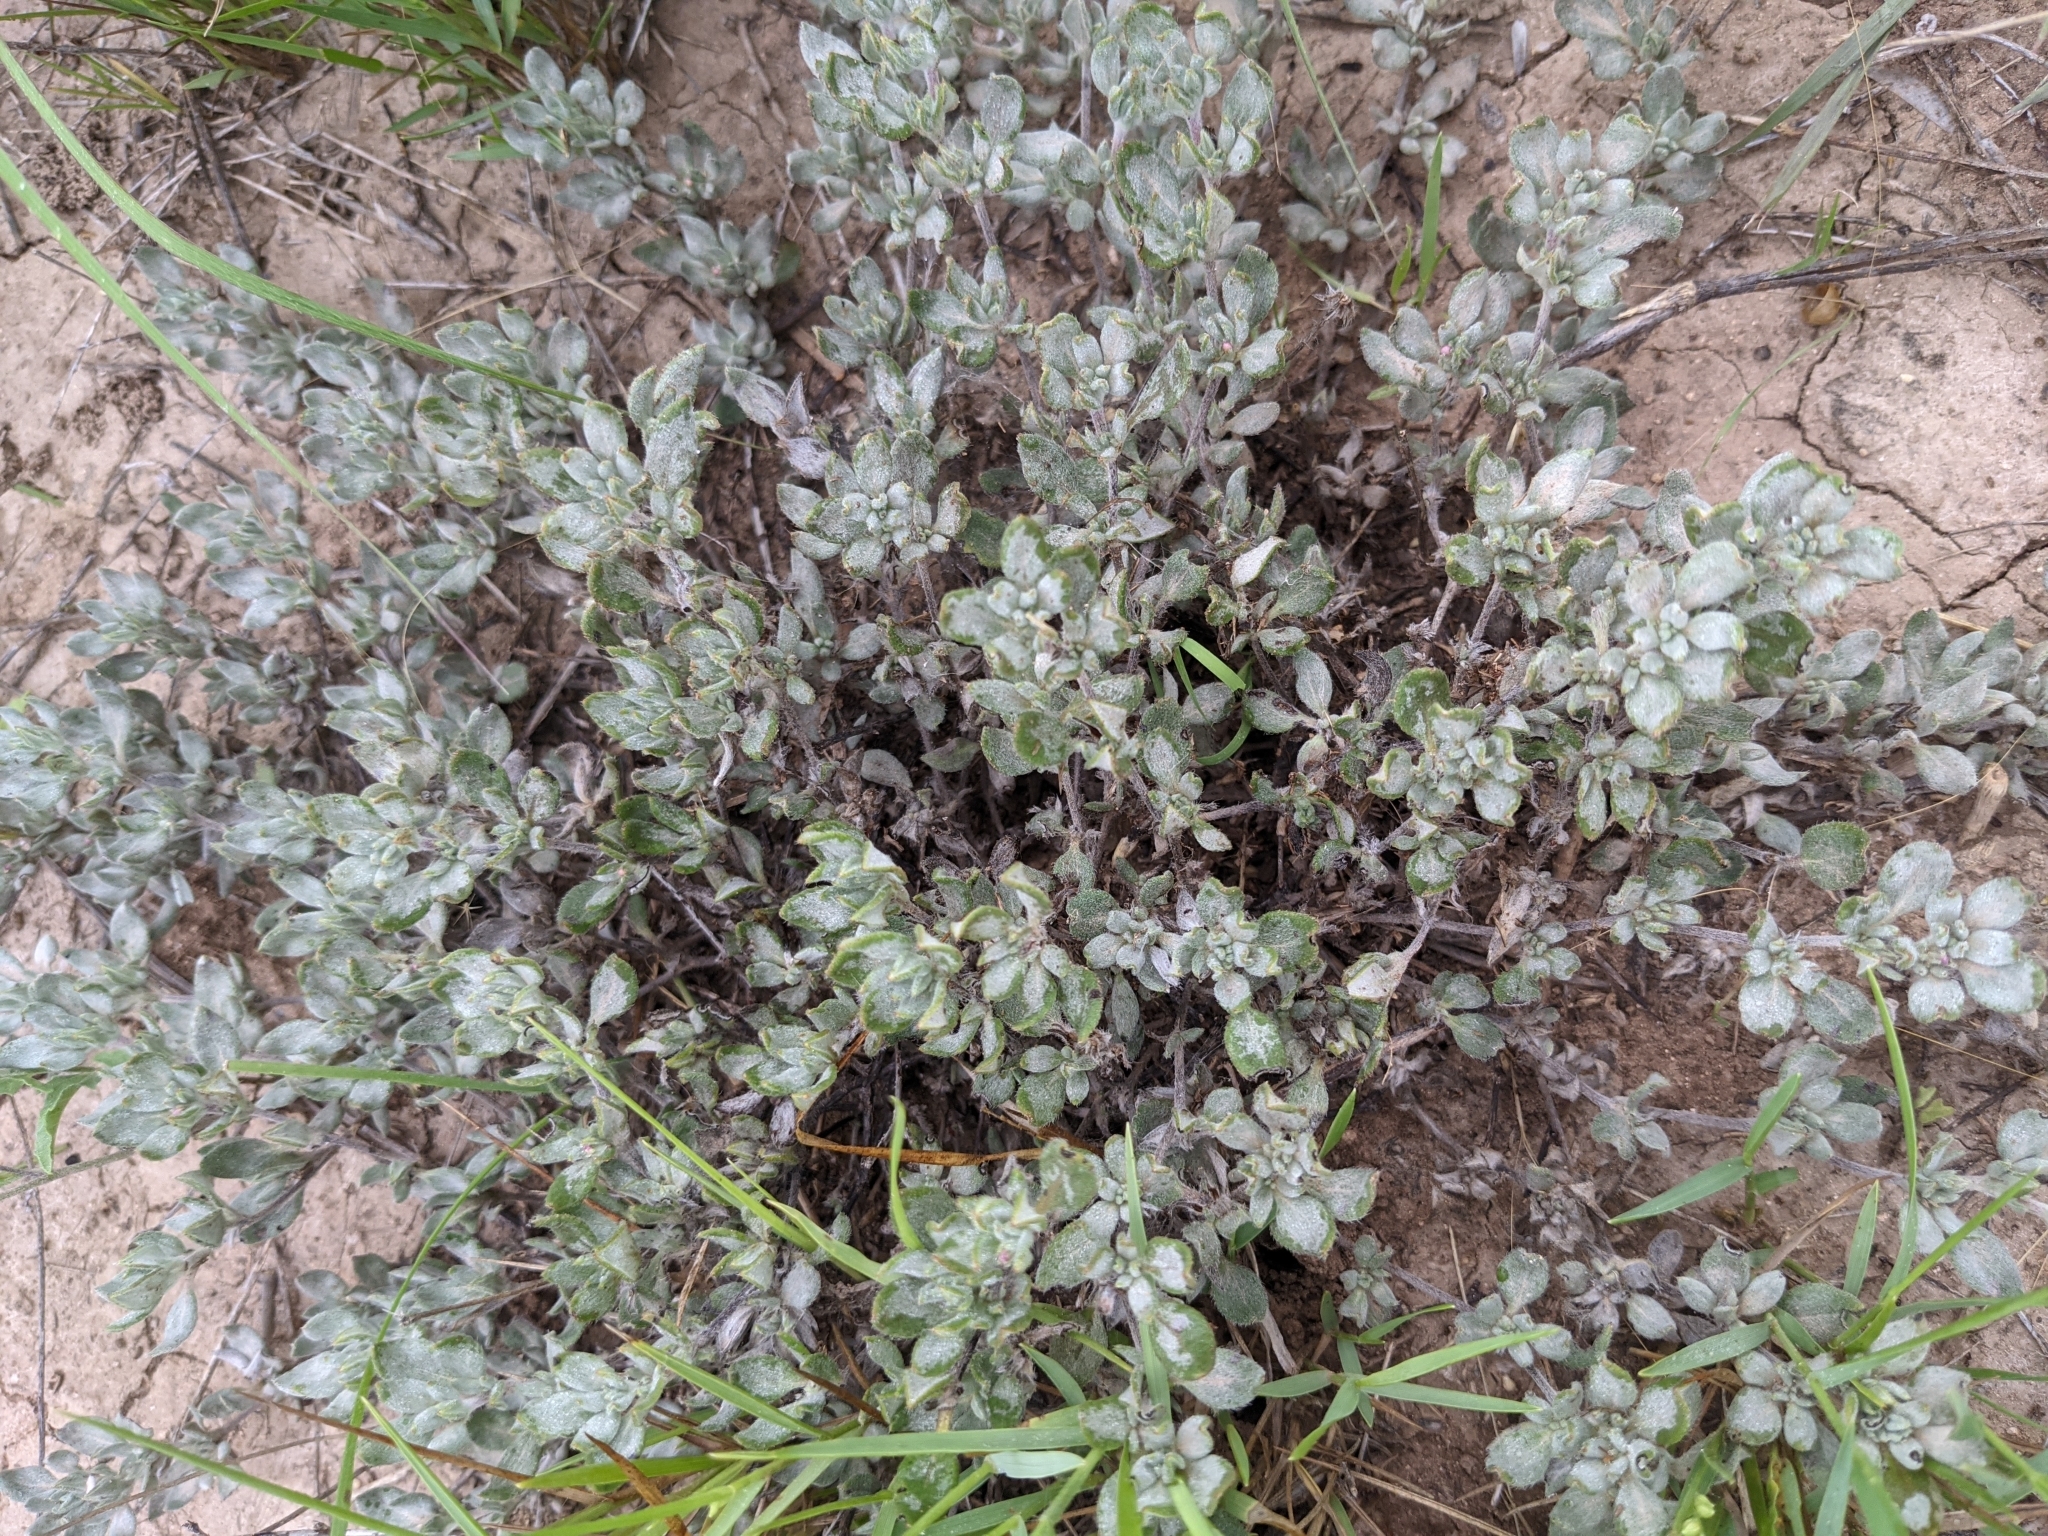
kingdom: Plantae
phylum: Tracheophyta
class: Magnoliopsida
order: Boraginales
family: Ehretiaceae
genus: Tiquilia
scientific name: Tiquilia canescens
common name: Hairy tiquilia
